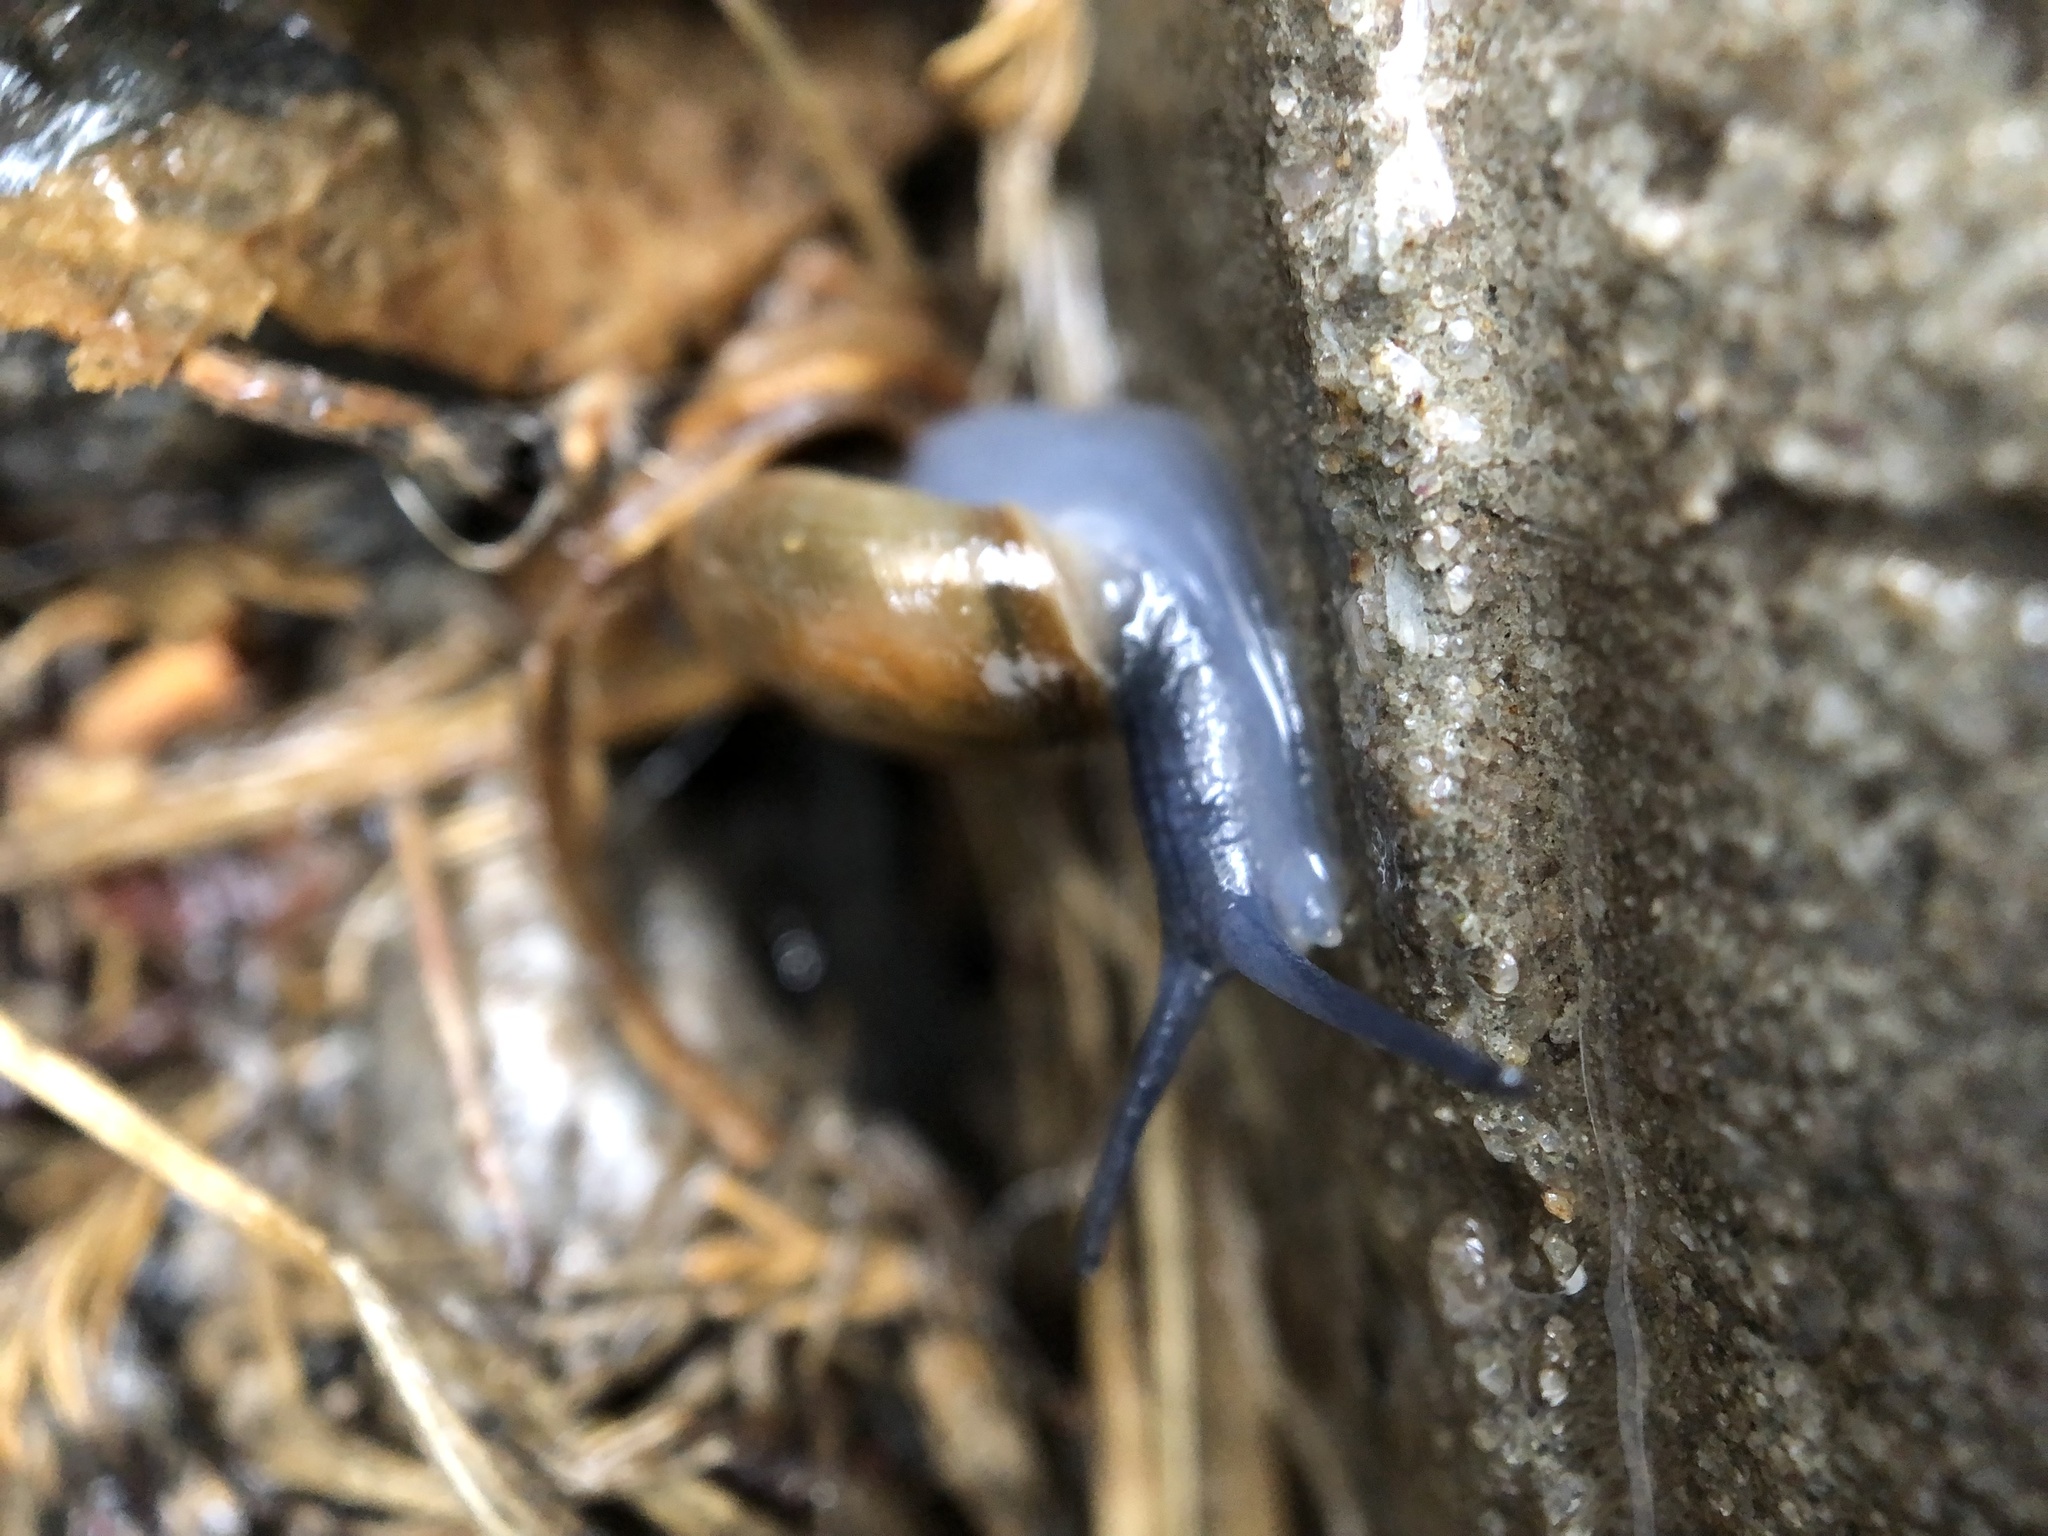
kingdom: Animalia
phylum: Mollusca
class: Gastropoda
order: Stylommatophora
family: Oxychilidae
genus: Oxychilus
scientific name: Oxychilus draparnaudi
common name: Draparnaud's glass snail
